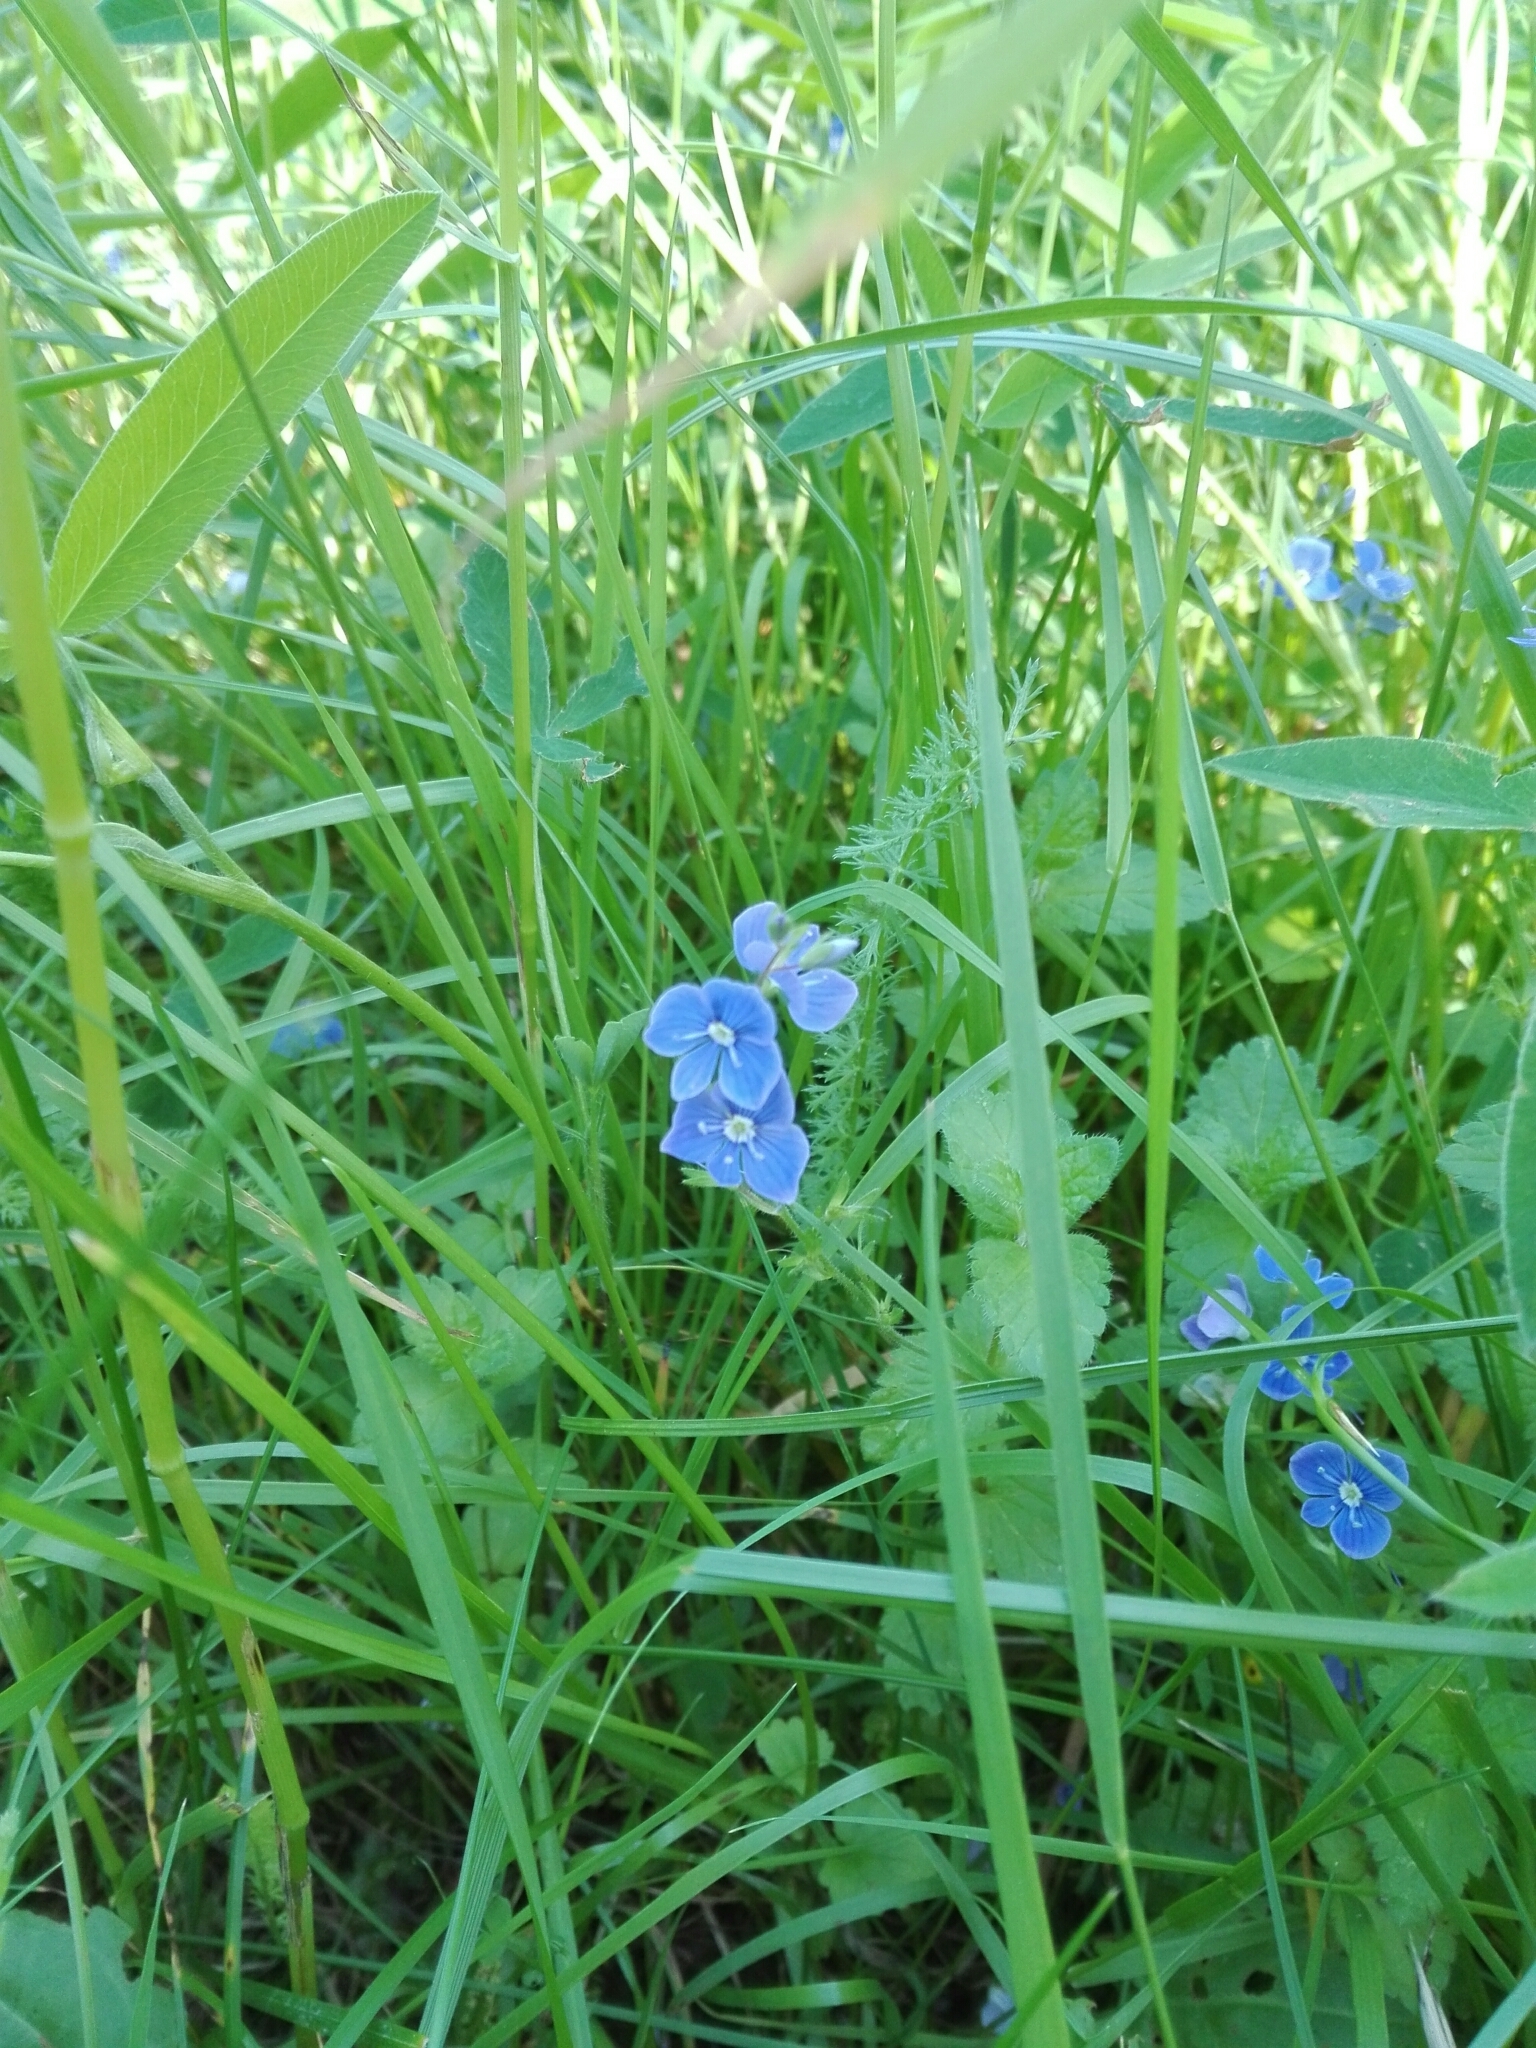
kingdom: Plantae
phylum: Tracheophyta
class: Magnoliopsida
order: Lamiales
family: Plantaginaceae
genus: Veronica
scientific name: Veronica chamaedrys
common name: Germander speedwell
